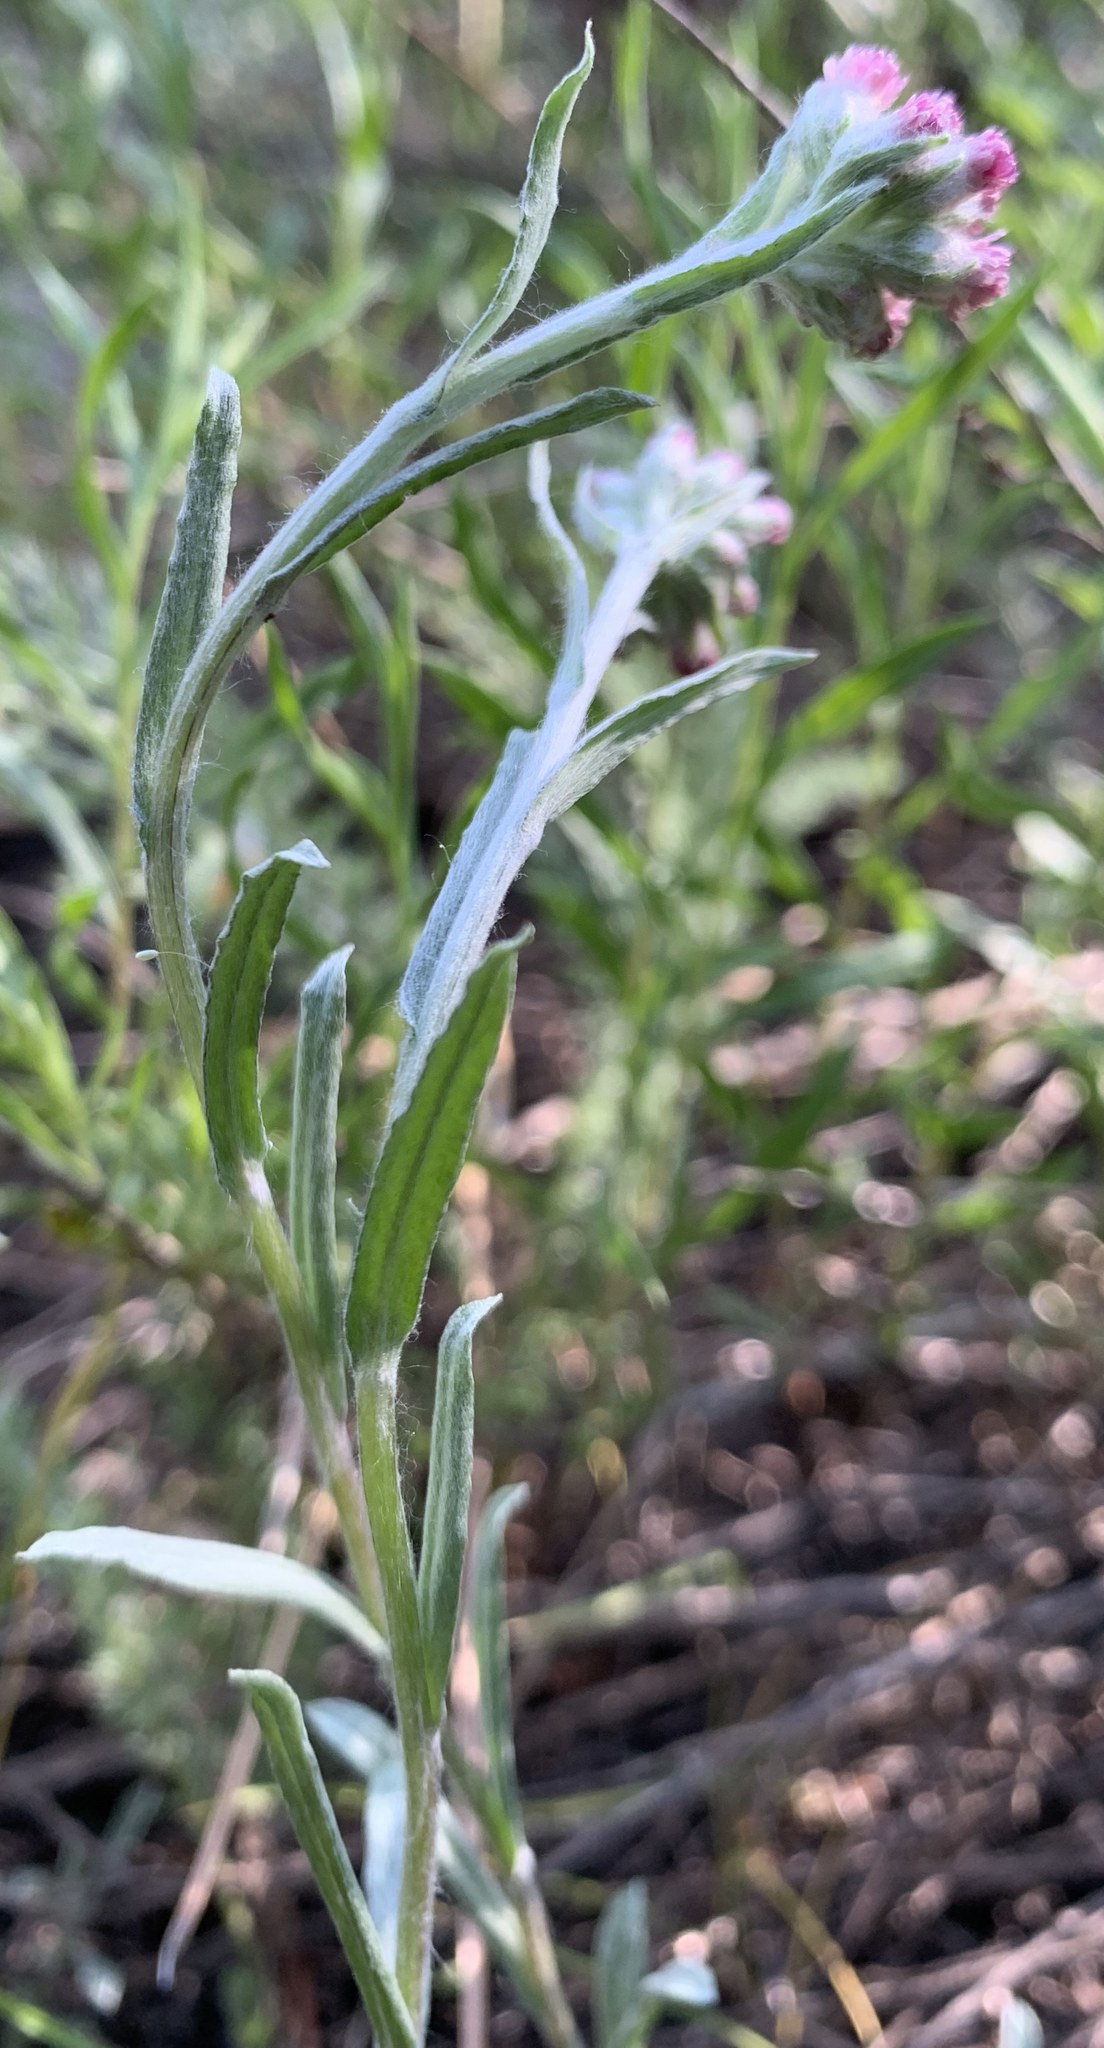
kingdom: Plantae
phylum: Tracheophyta
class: Magnoliopsida
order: Asterales
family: Asteraceae
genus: Antennaria
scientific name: Antennaria rosea
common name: Rosy pussytoes
